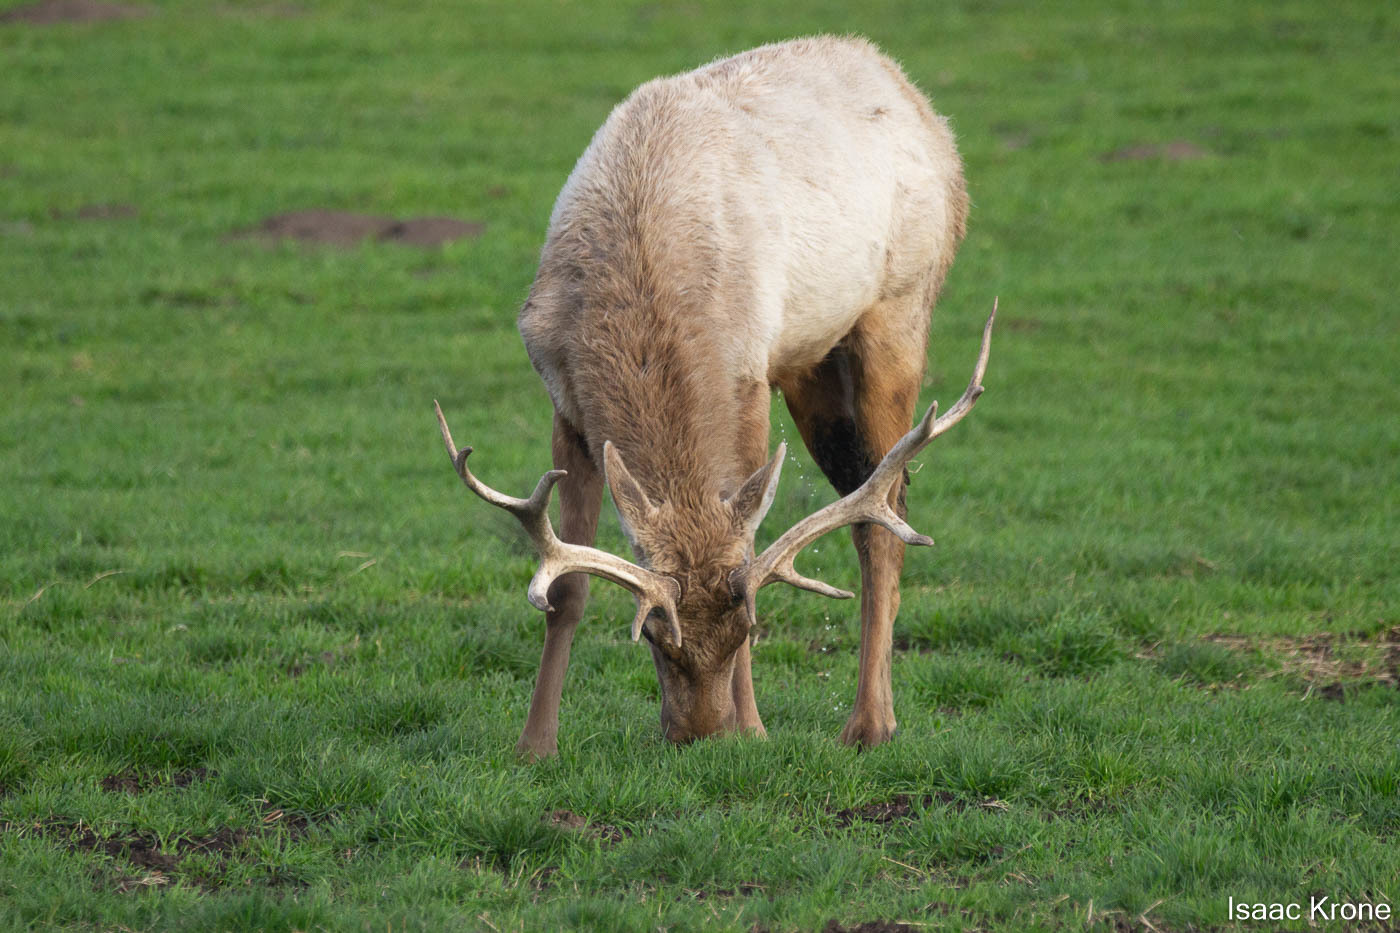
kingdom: Animalia
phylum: Chordata
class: Mammalia
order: Artiodactyla
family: Cervidae
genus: Cervus
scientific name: Cervus elaphus
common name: Red deer
